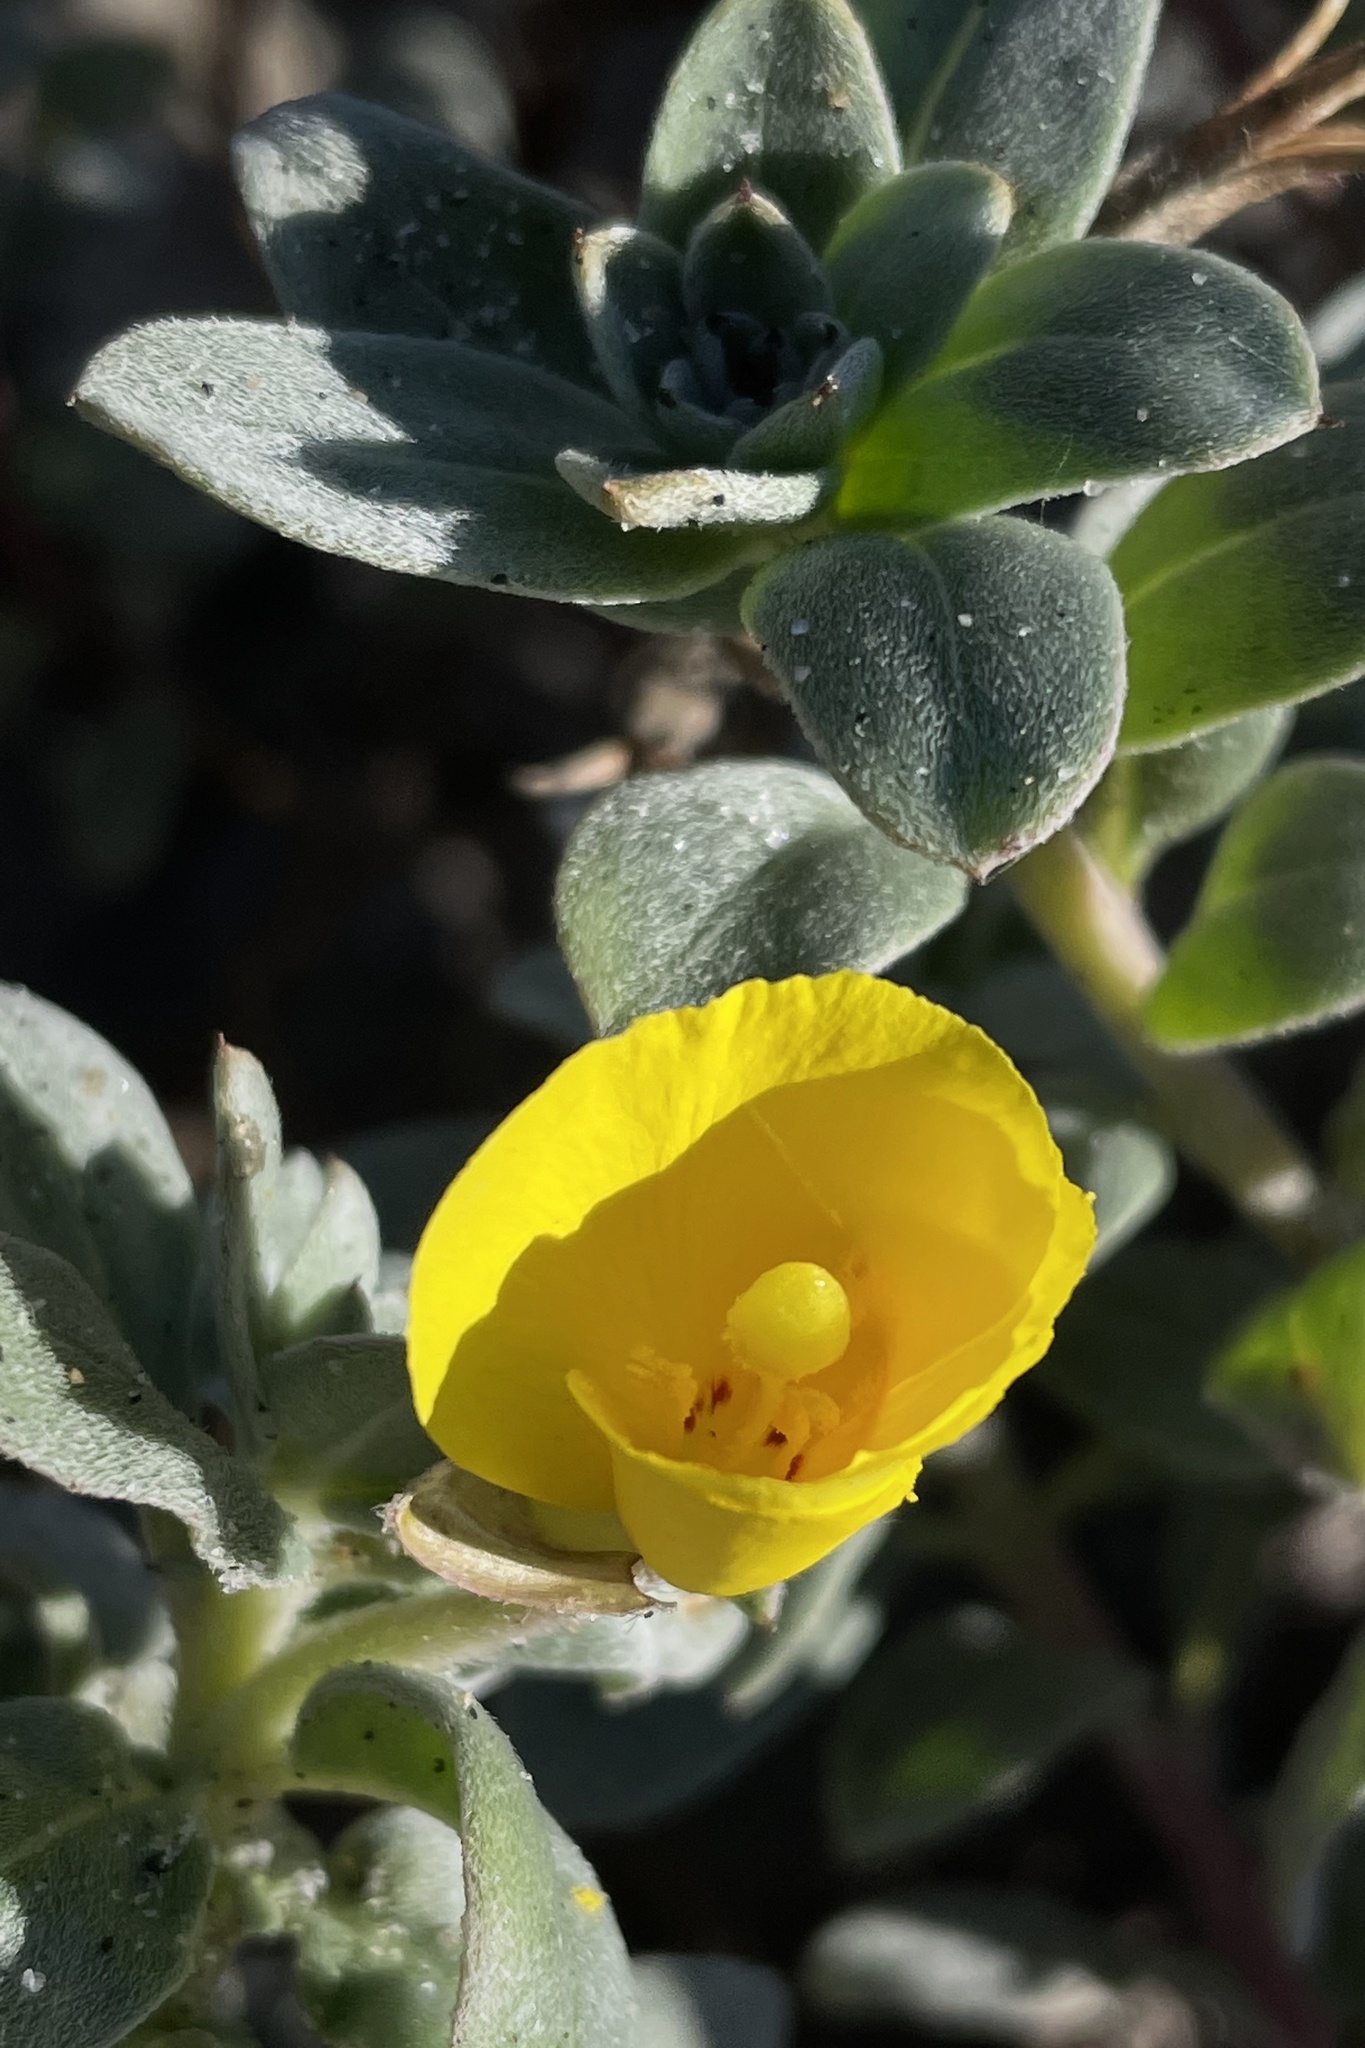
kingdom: Plantae
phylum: Tracheophyta
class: Magnoliopsida
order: Myrtales
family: Onagraceae
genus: Camissoniopsis
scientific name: Camissoniopsis cheiranthifolia
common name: Beach suncup
